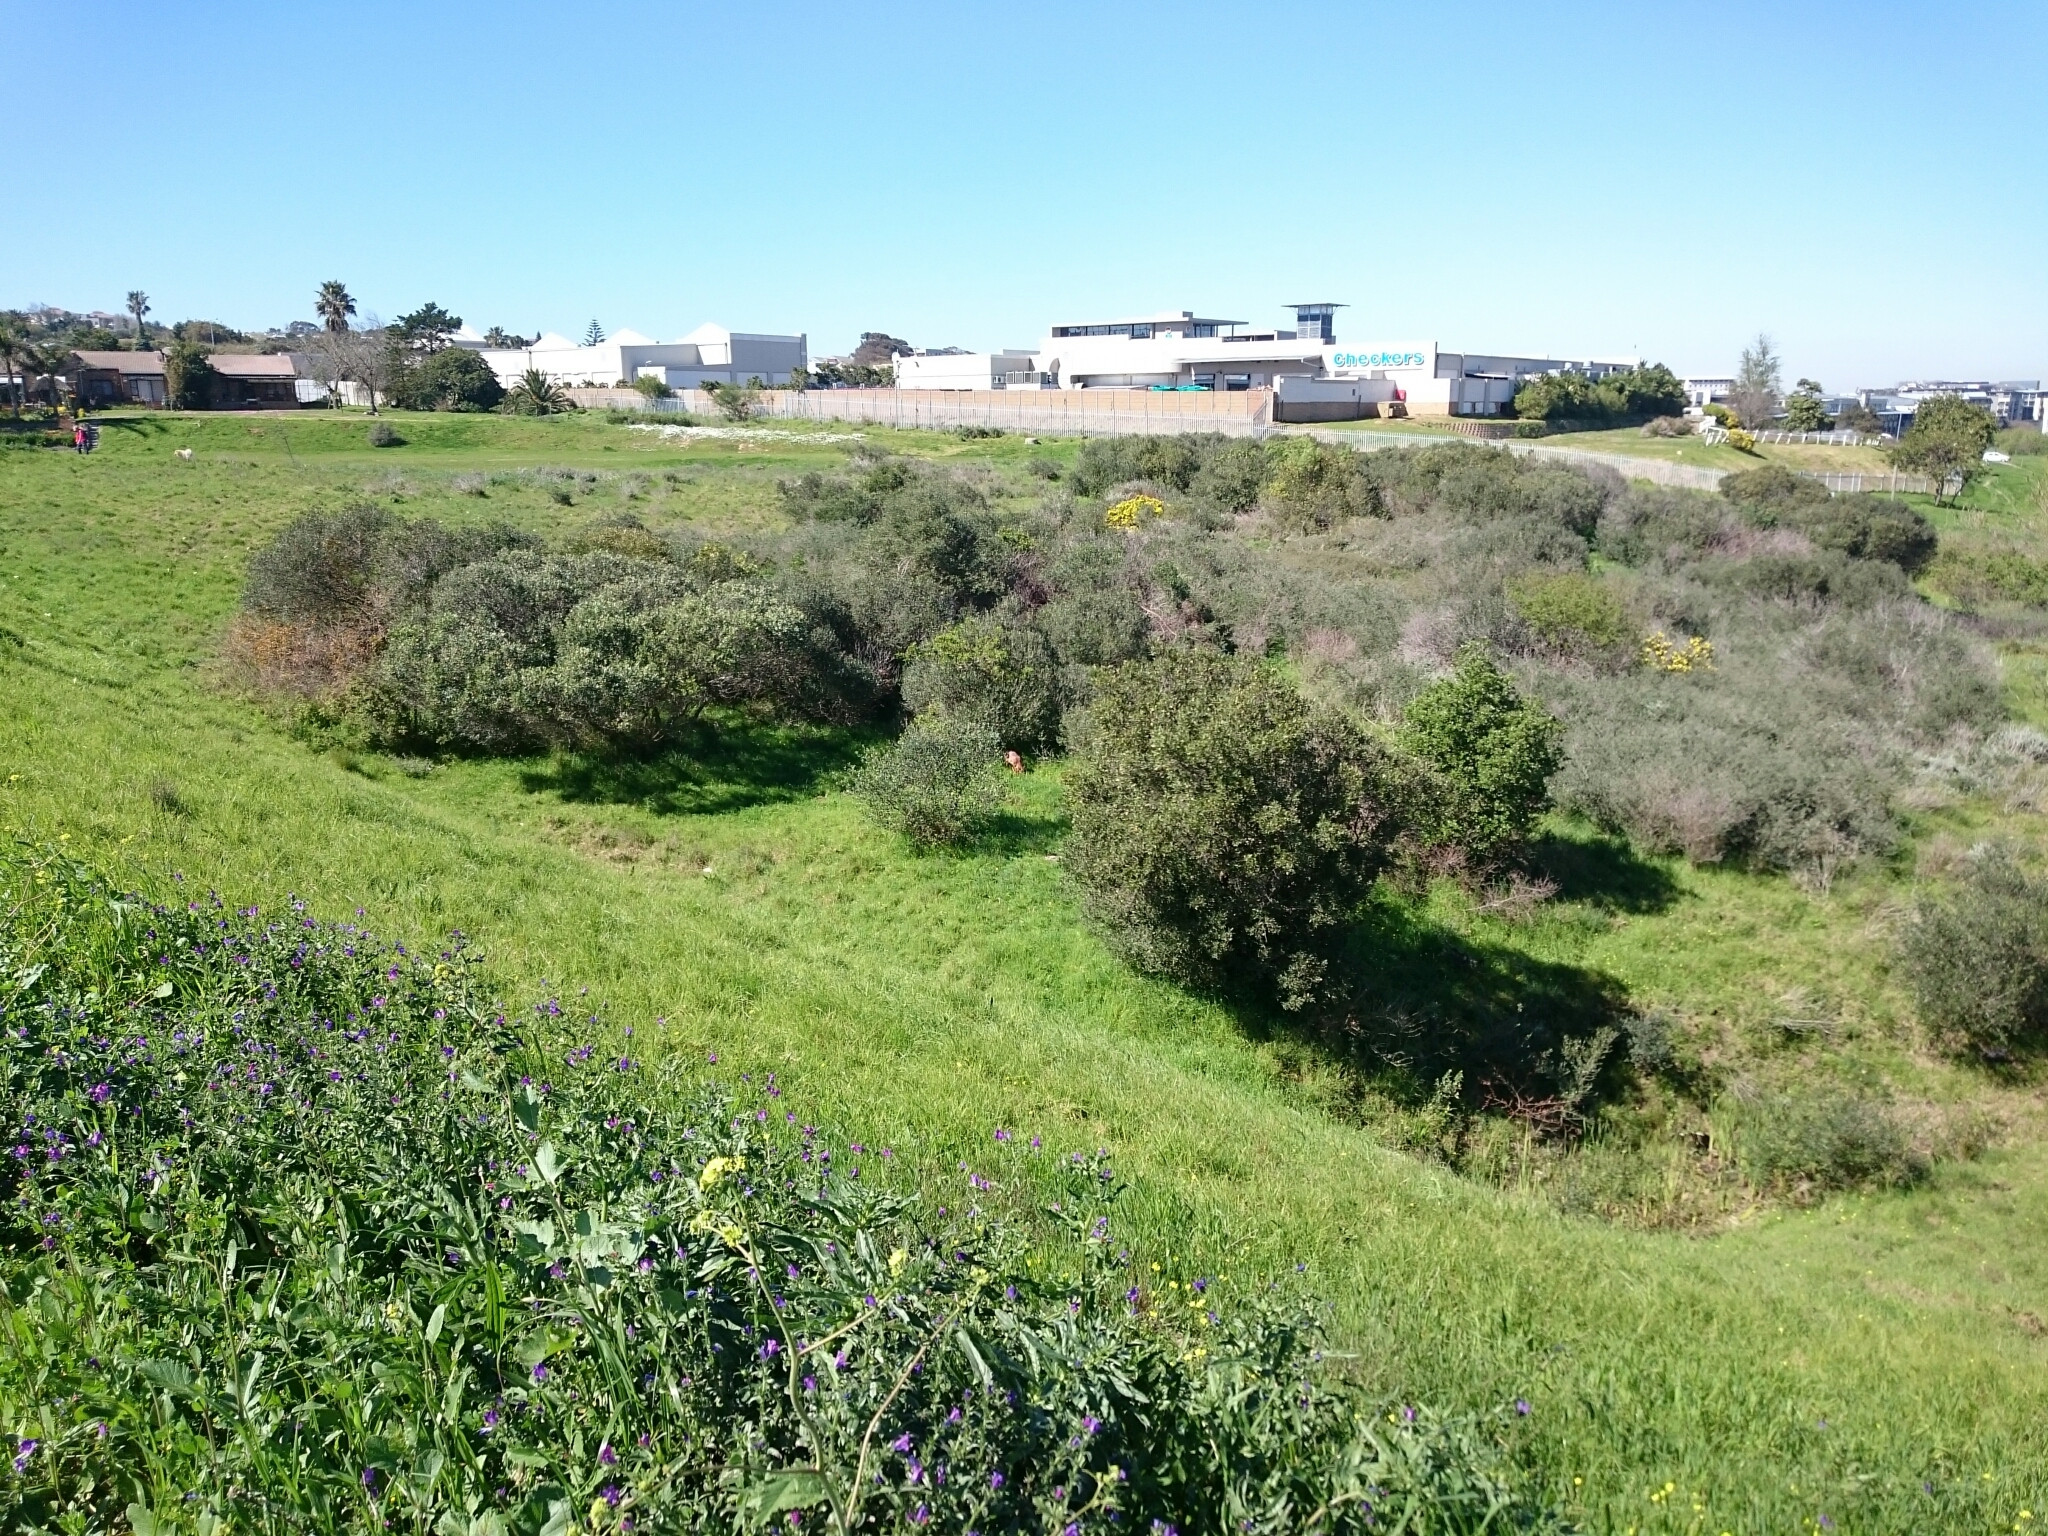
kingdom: Animalia
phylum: Chordata
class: Mammalia
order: Artiodactyla
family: Bovidae
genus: Raphicerus
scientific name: Raphicerus melanotis
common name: Cape grysbok
